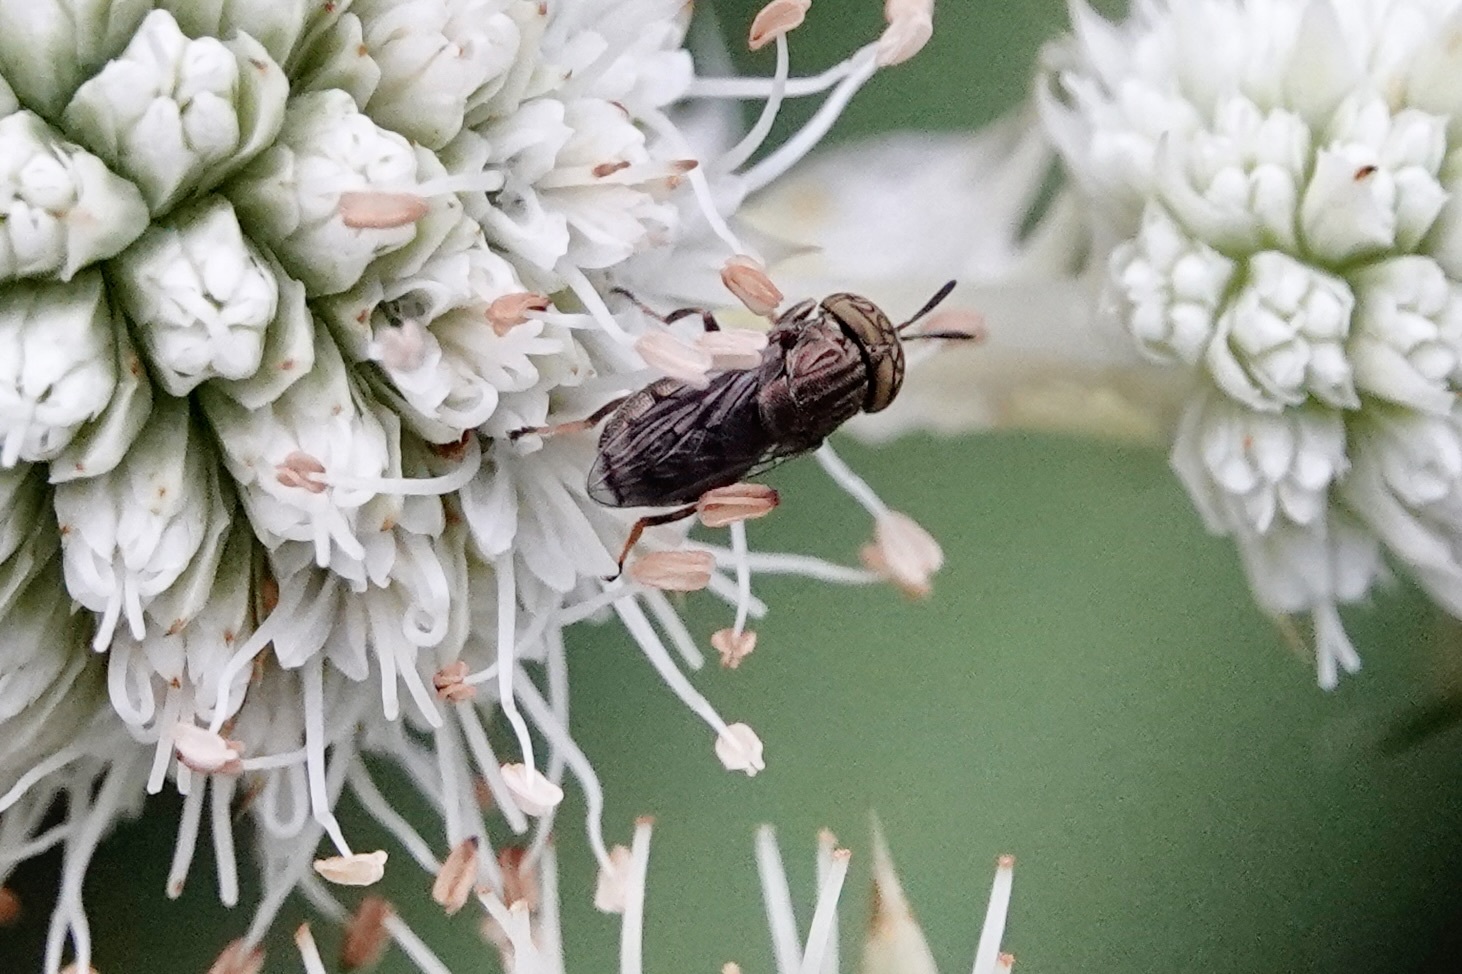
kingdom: Animalia
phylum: Arthropoda
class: Insecta
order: Diptera
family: Syrphidae
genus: Orthonevra
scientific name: Orthonevra nitida
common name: Wavy mucksucker
